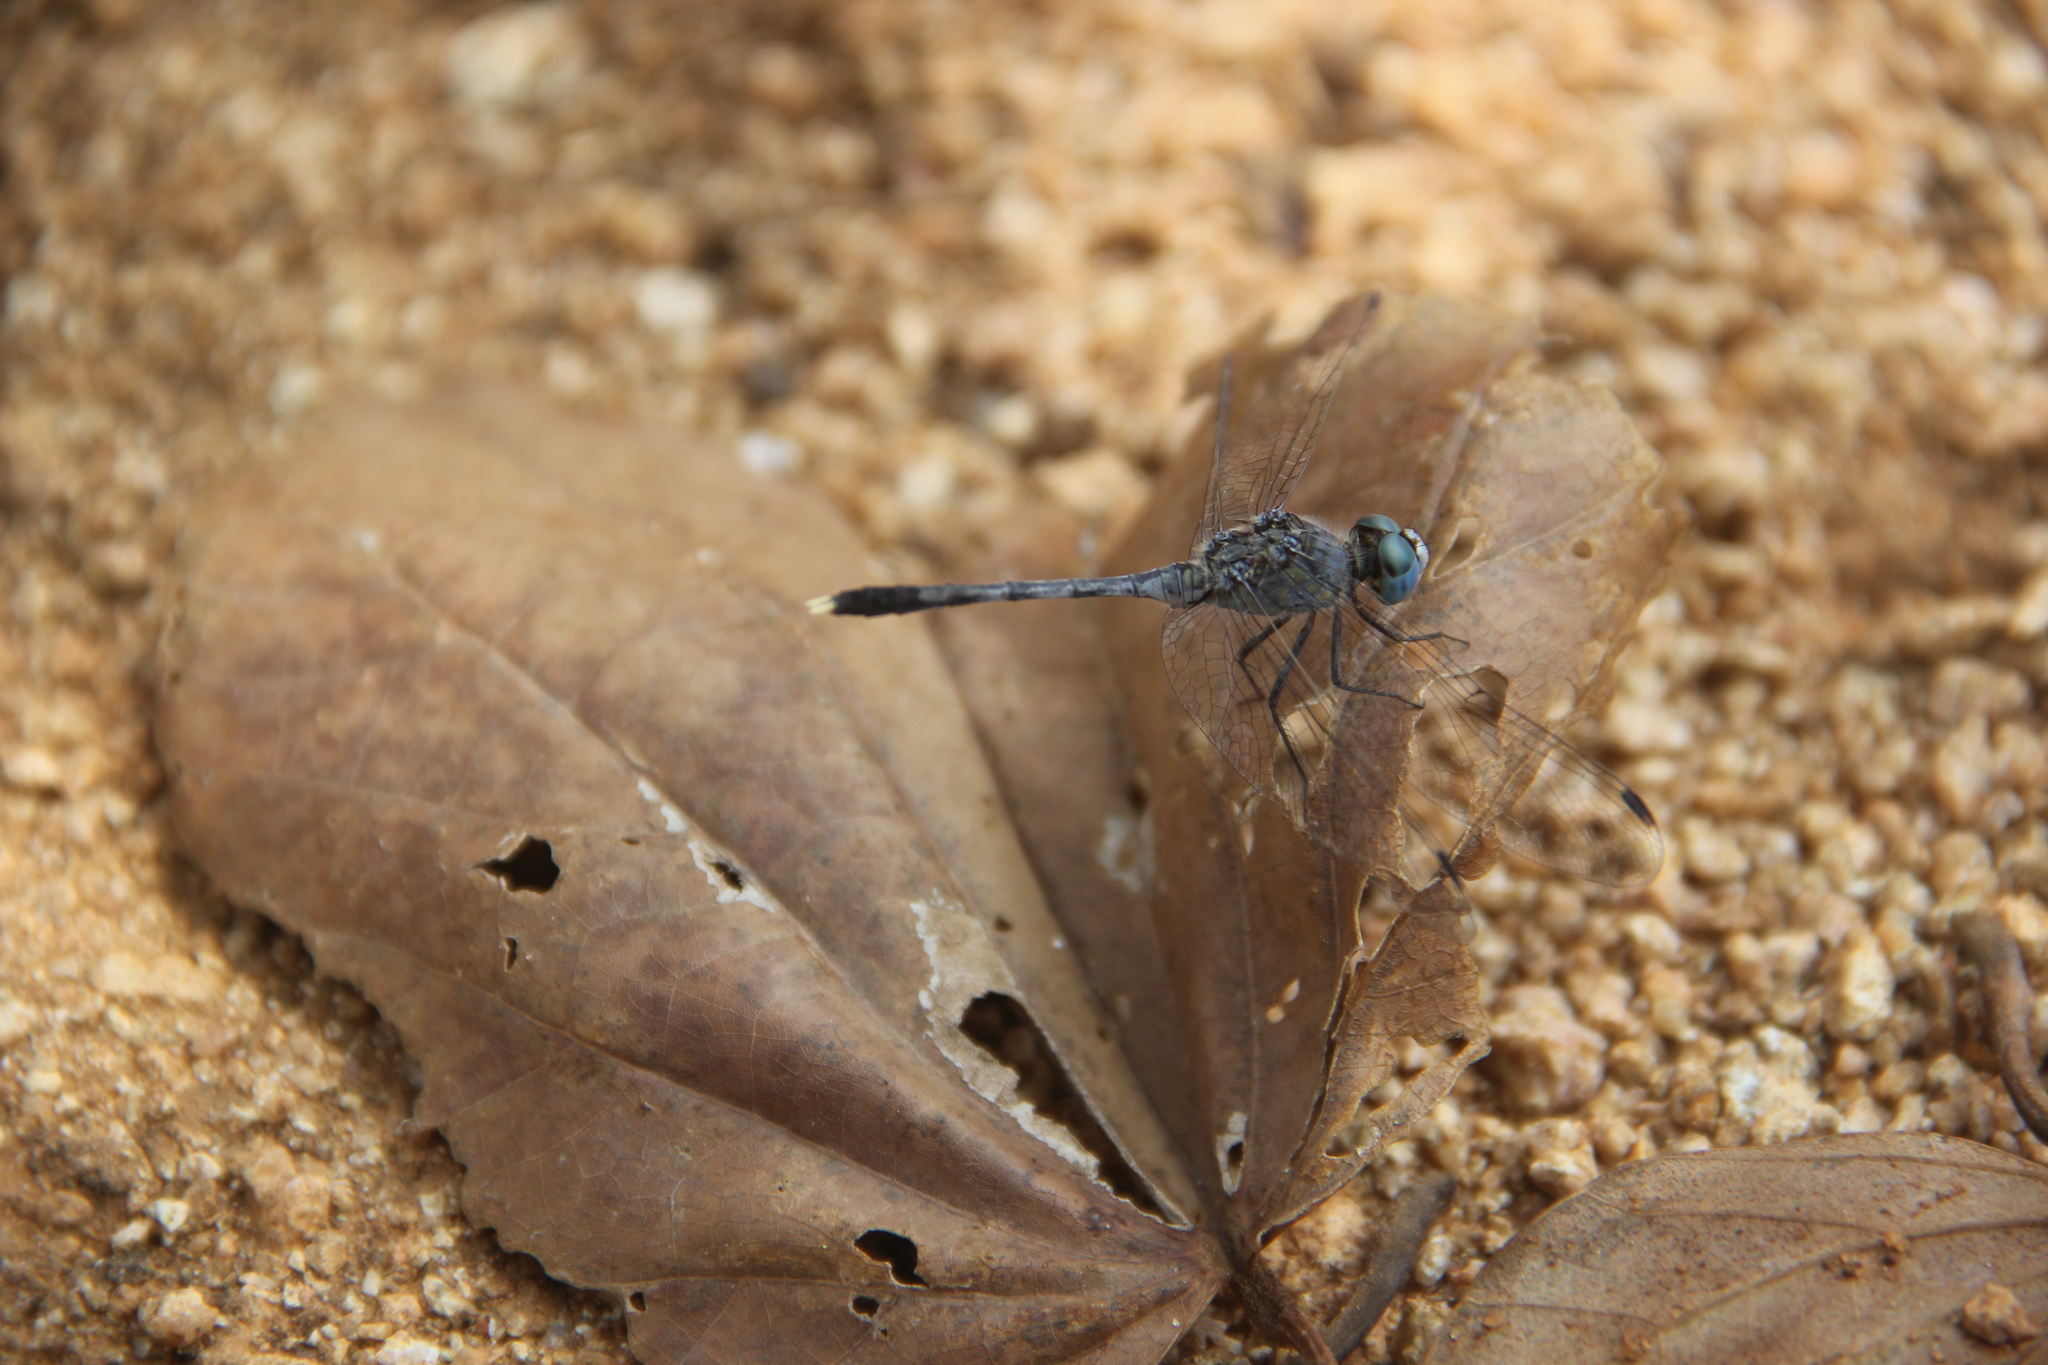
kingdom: Animalia
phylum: Arthropoda
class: Insecta
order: Odonata
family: Libellulidae
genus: Diplacodes
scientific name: Diplacodes trivialis
